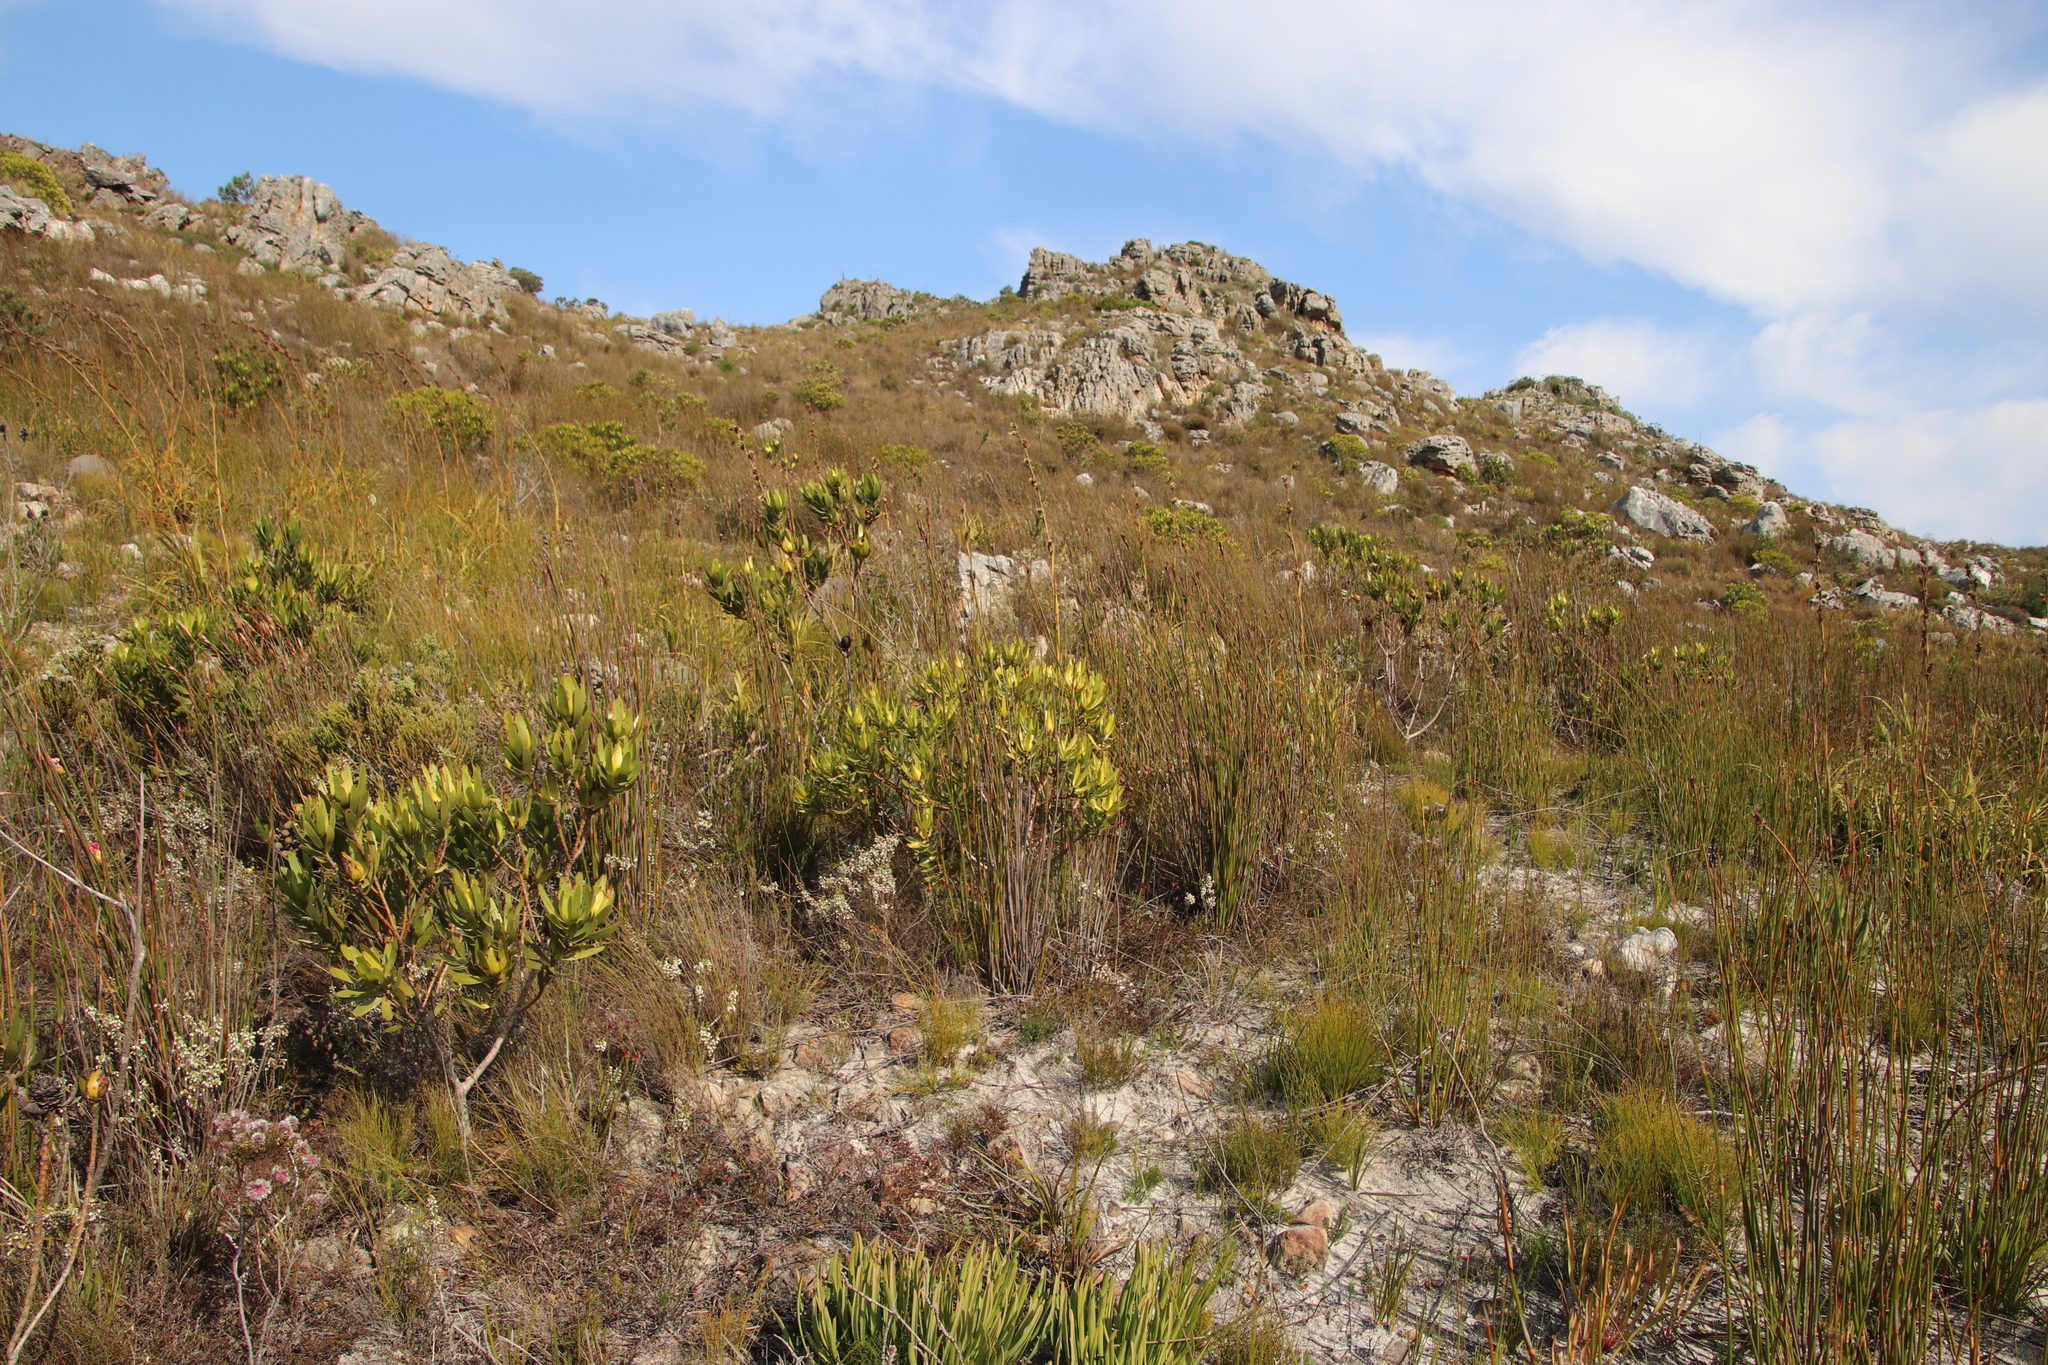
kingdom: Plantae
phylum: Tracheophyta
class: Magnoliopsida
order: Proteales
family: Proteaceae
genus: Leucadendron
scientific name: Leucadendron laureolum
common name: Golden sunshinebush
